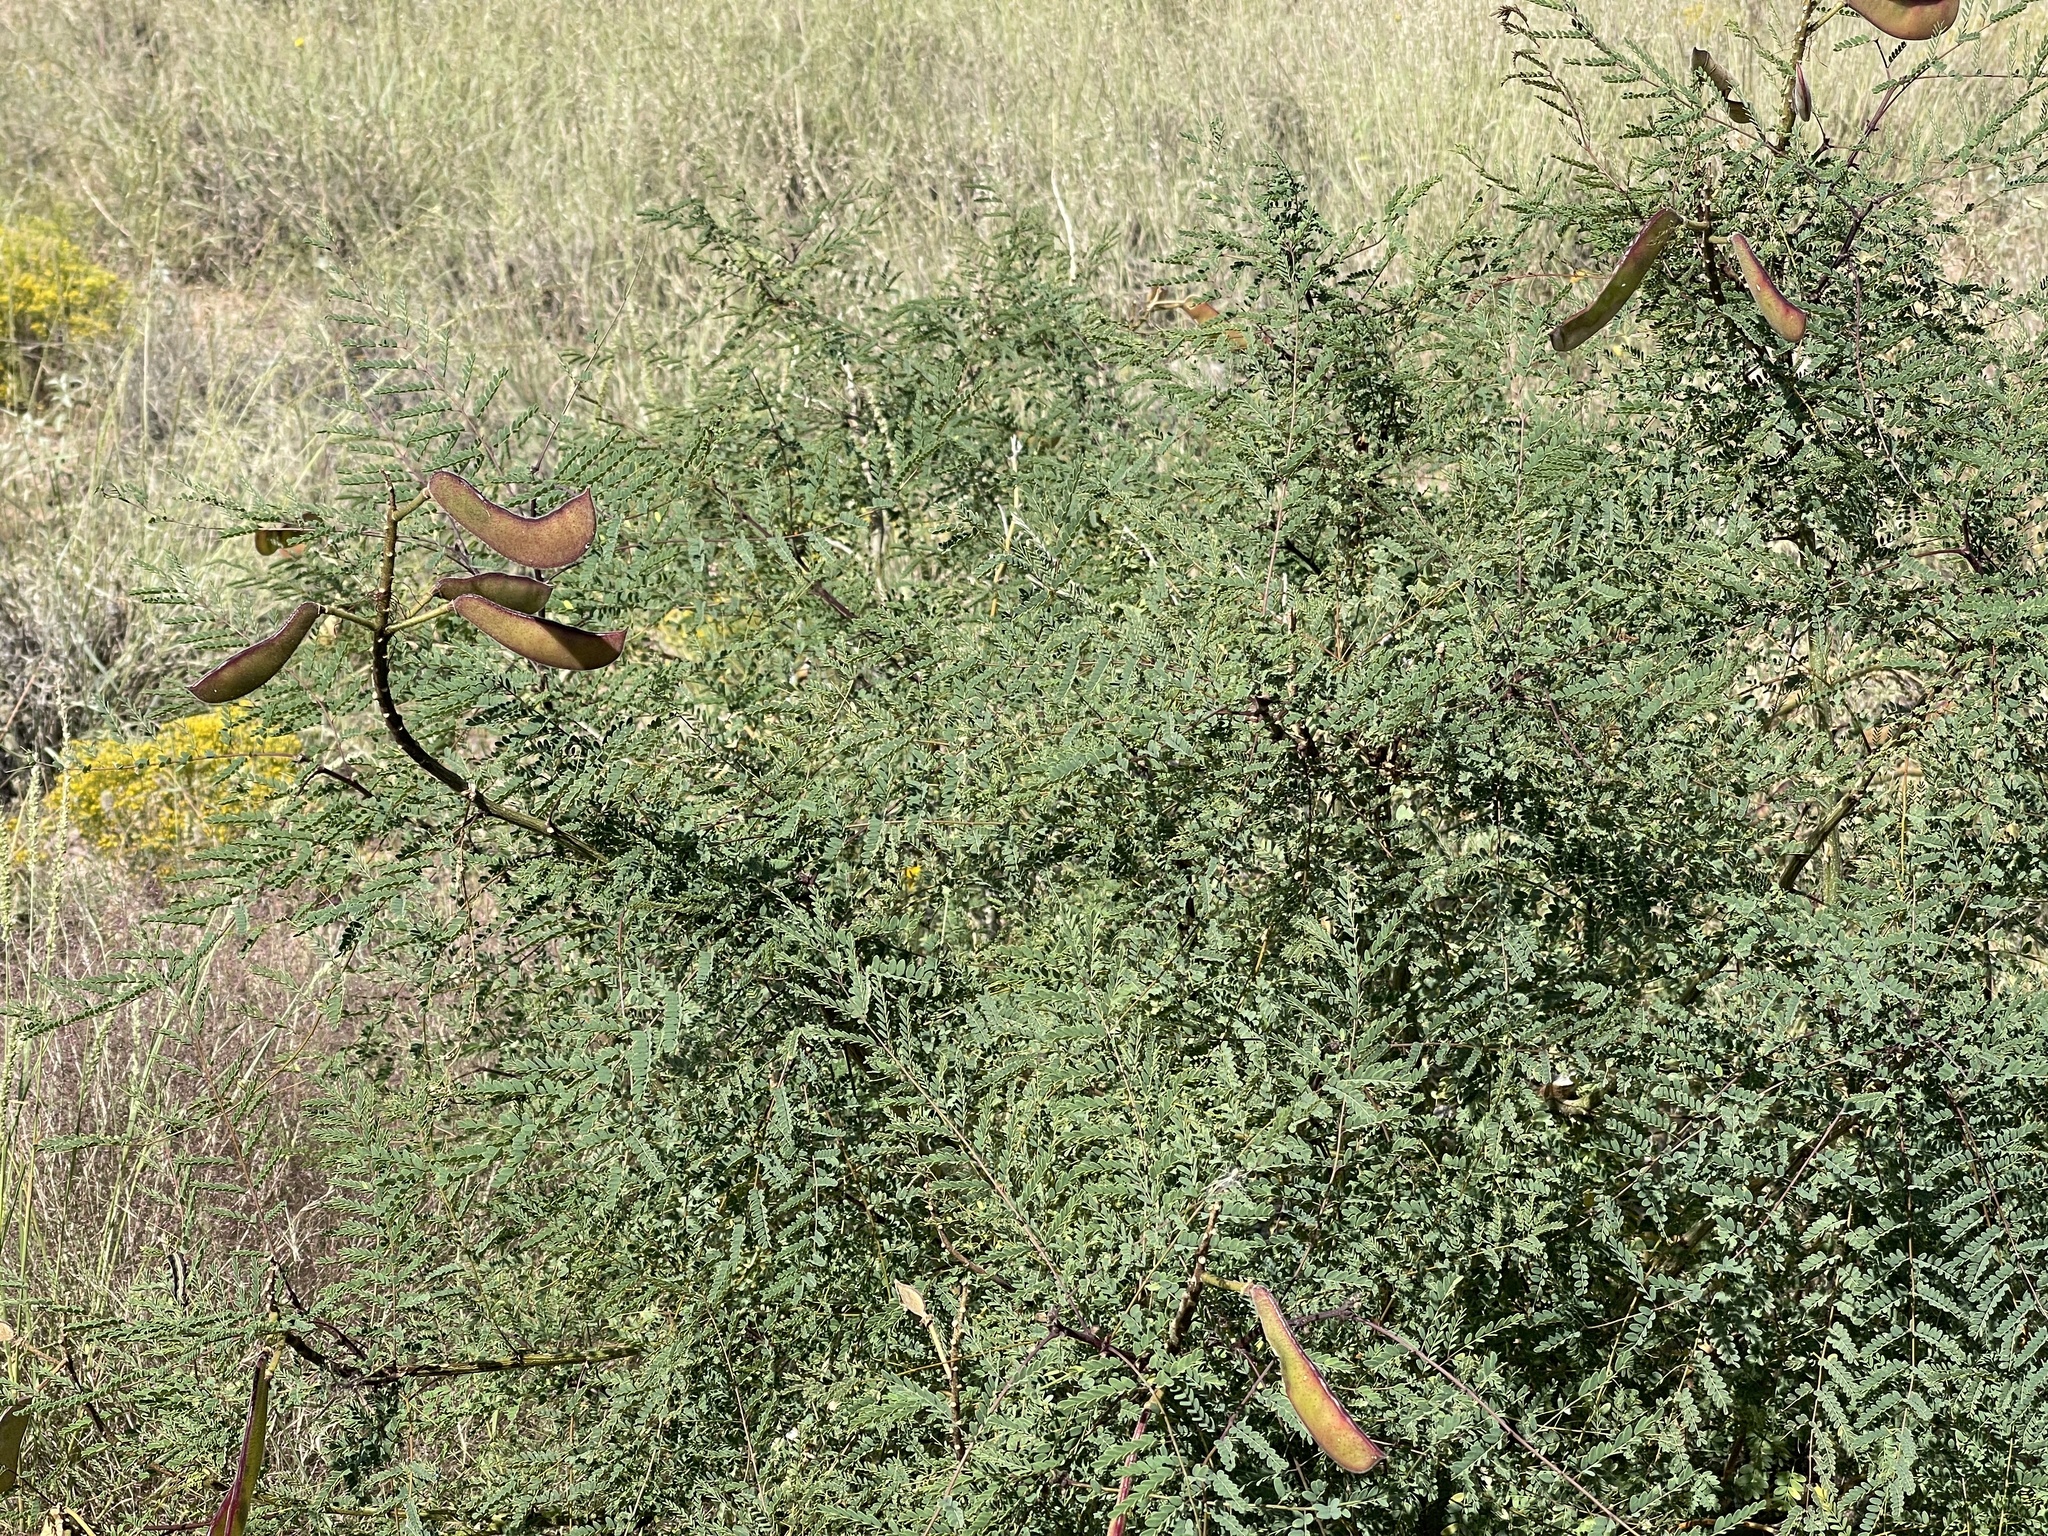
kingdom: Plantae
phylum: Tracheophyta
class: Magnoliopsida
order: Fabales
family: Fabaceae
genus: Erythrostemon
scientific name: Erythrostemon gilliesii
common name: Bird-of-paradise shrub
